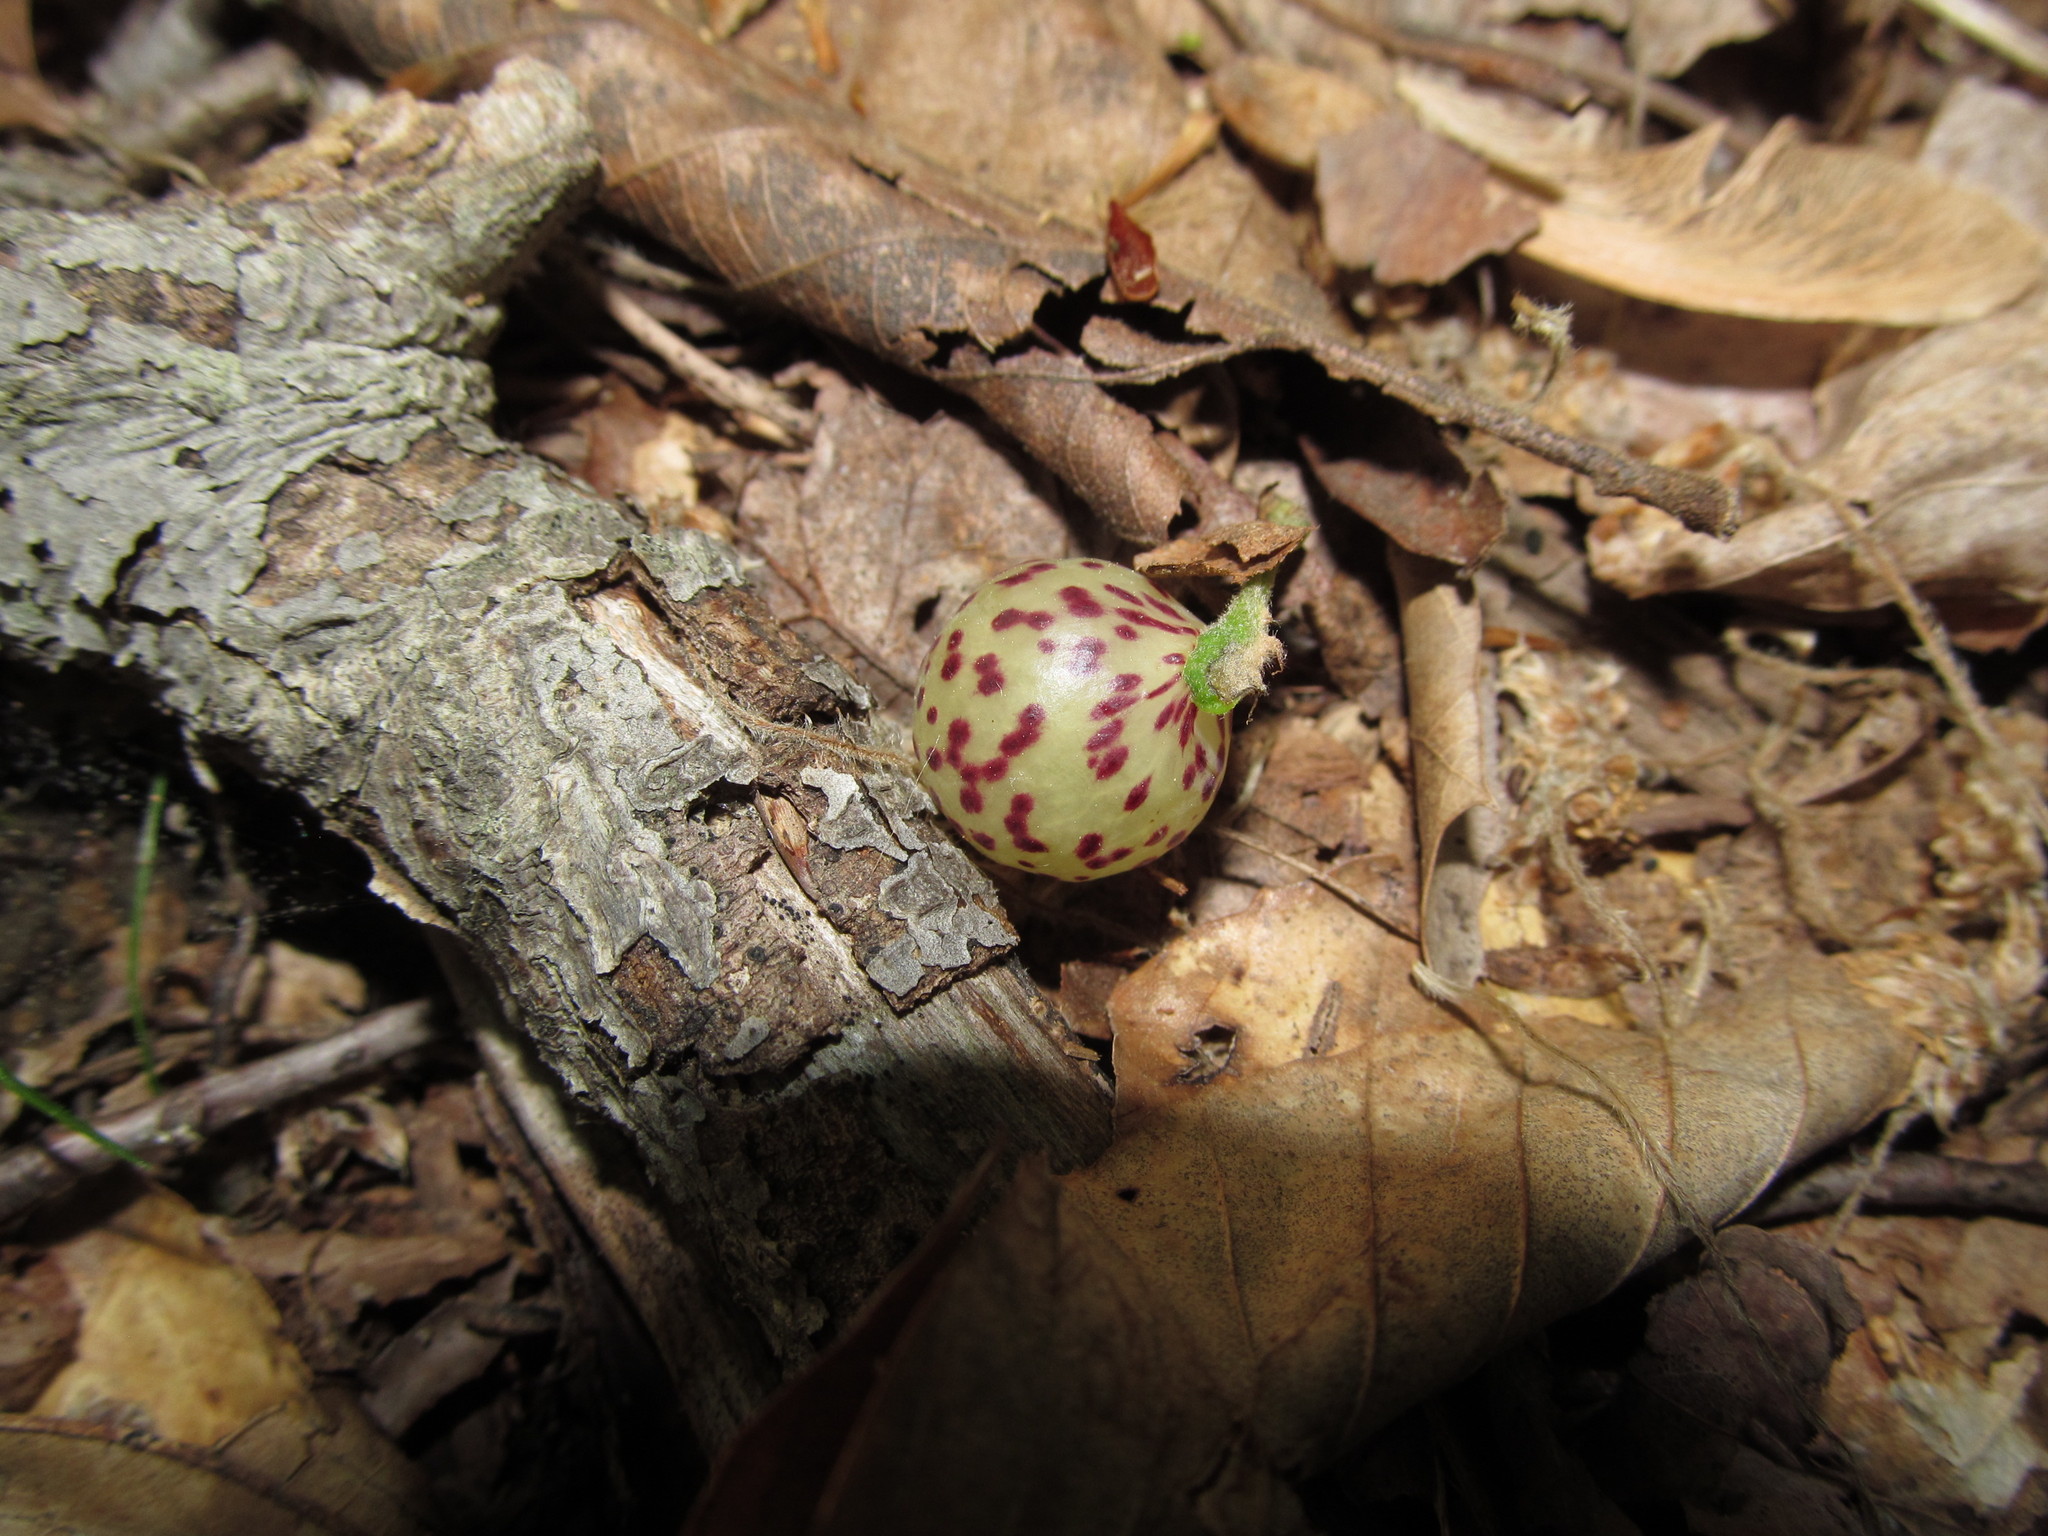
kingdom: Animalia
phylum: Arthropoda
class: Insecta
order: Hymenoptera
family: Cynipidae
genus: Amphibolips
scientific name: Amphibolips
